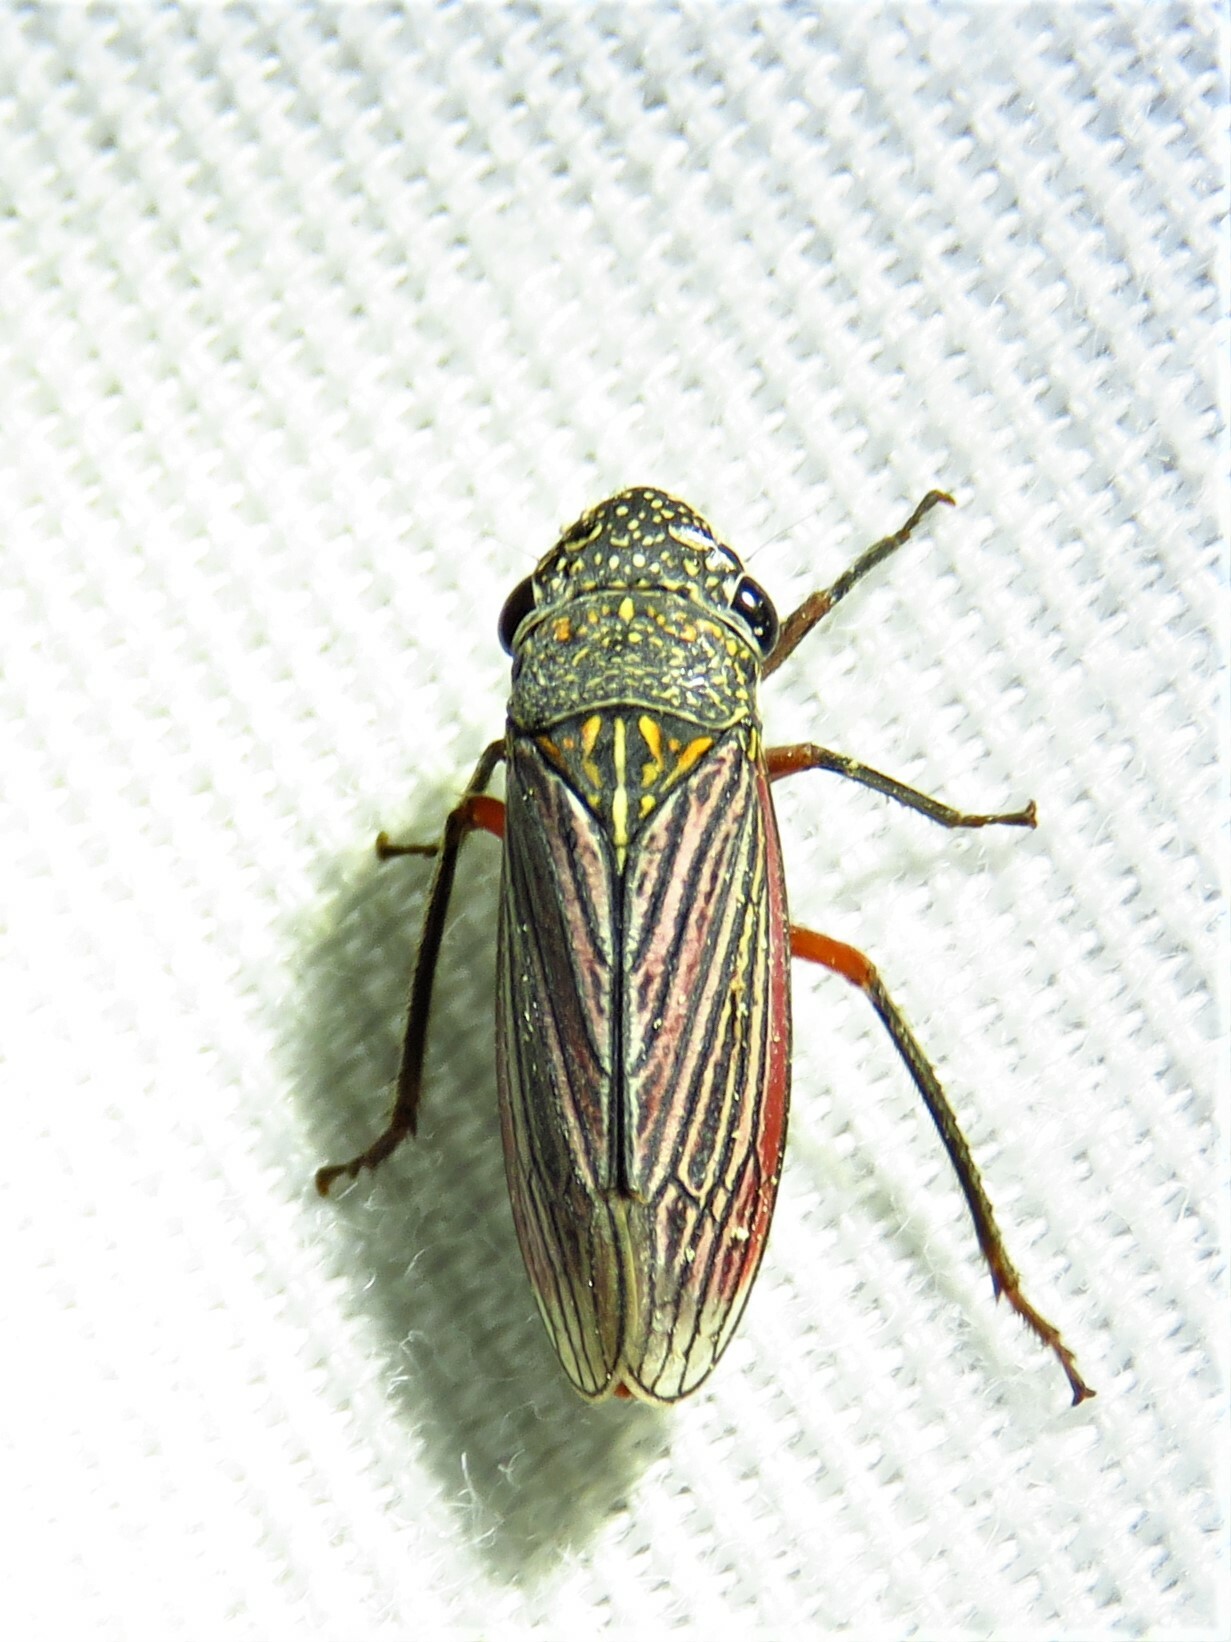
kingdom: Animalia
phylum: Arthropoda
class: Insecta
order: Hemiptera
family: Cicadellidae
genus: Cuerna
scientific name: Cuerna costalis
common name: Lateral-lined sharpshooter
